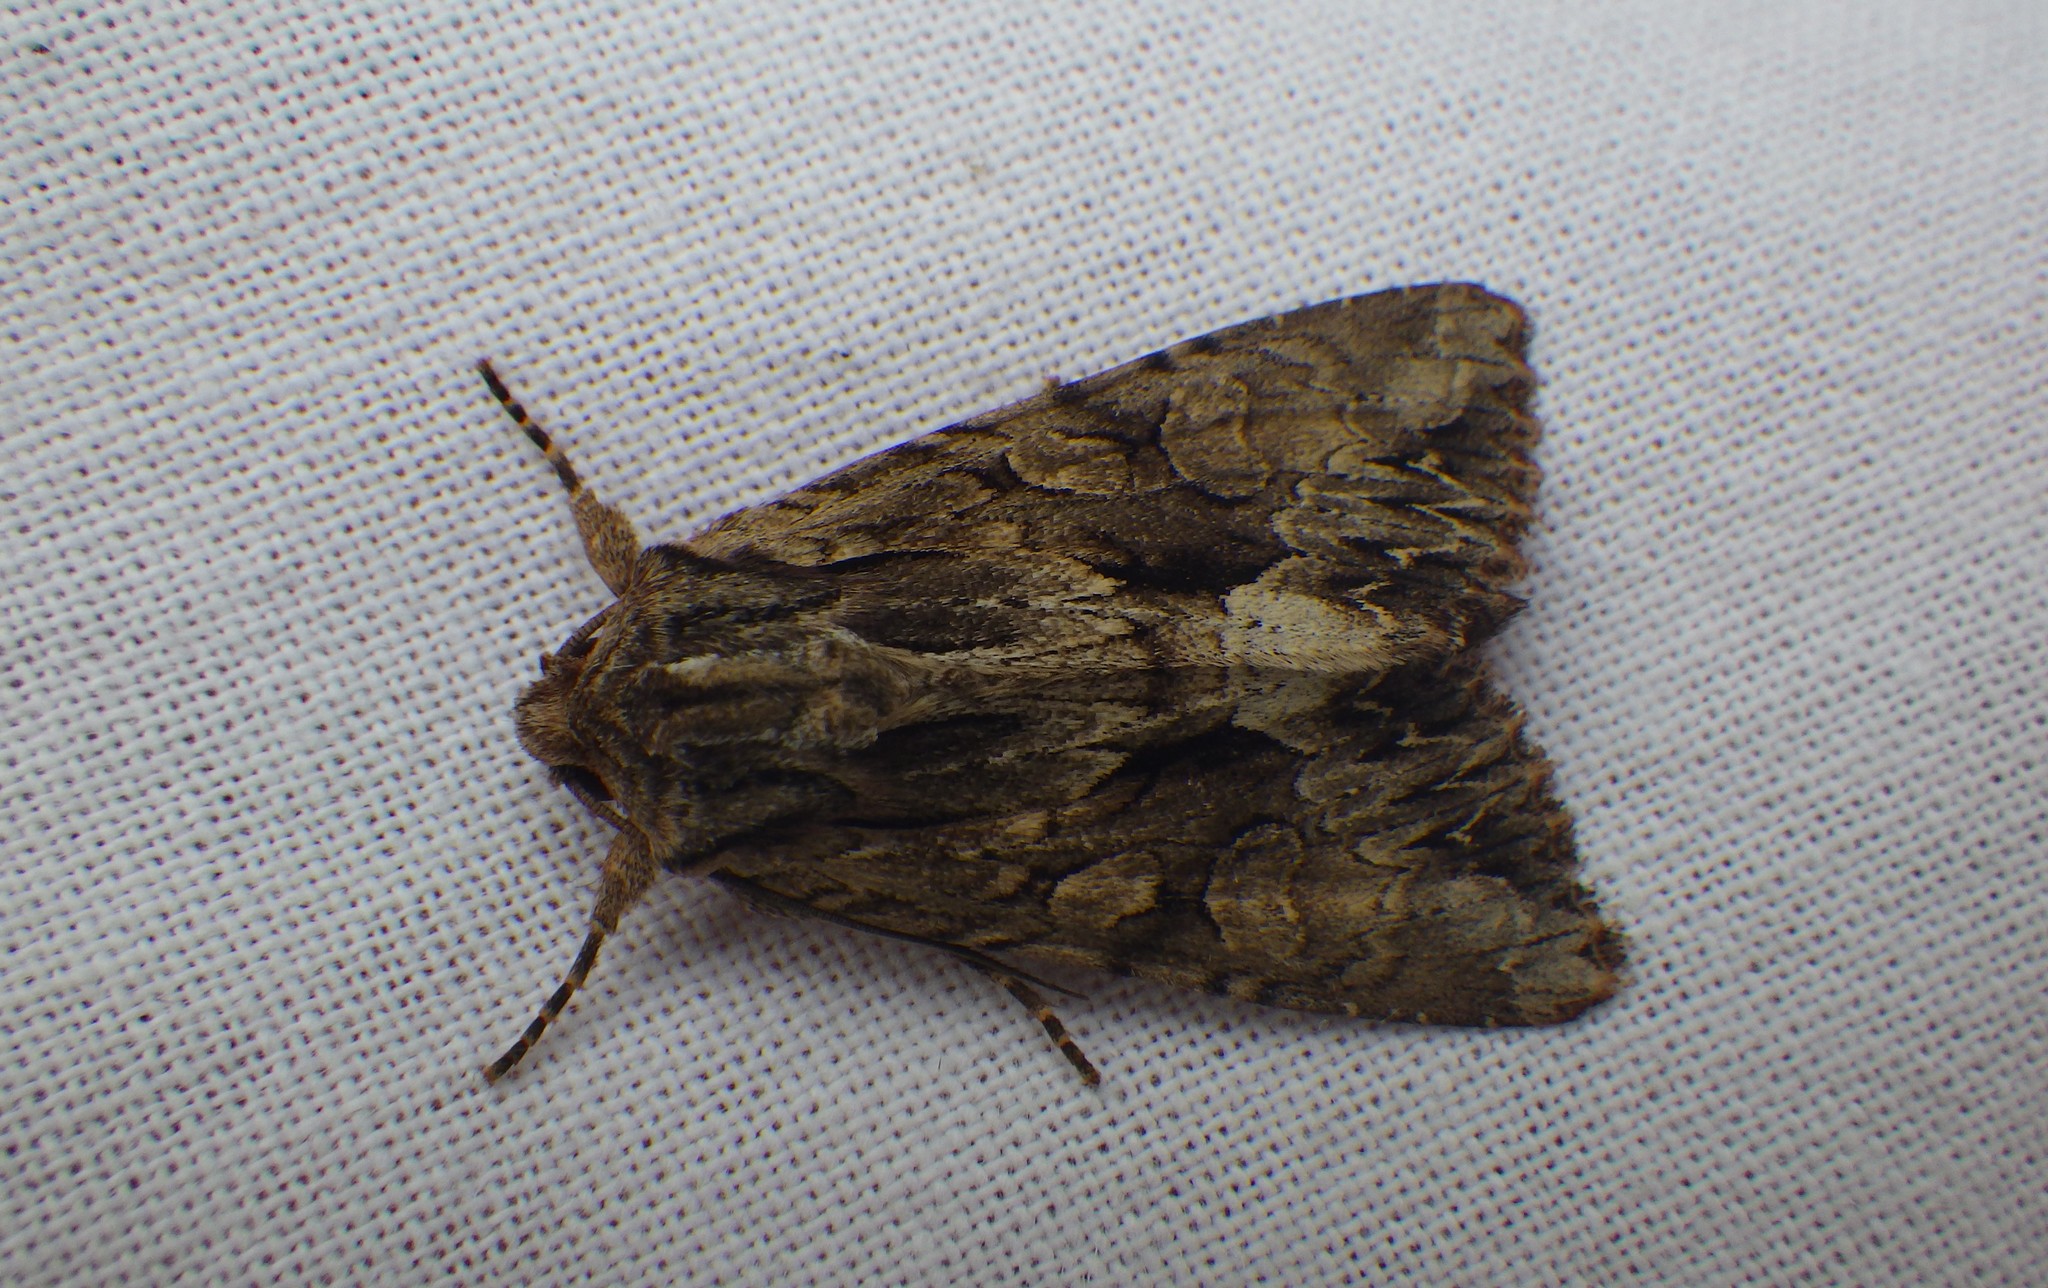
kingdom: Animalia
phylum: Arthropoda
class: Insecta
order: Lepidoptera
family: Noctuidae
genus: Apamea
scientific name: Apamea monoglypha
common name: Dark arches
